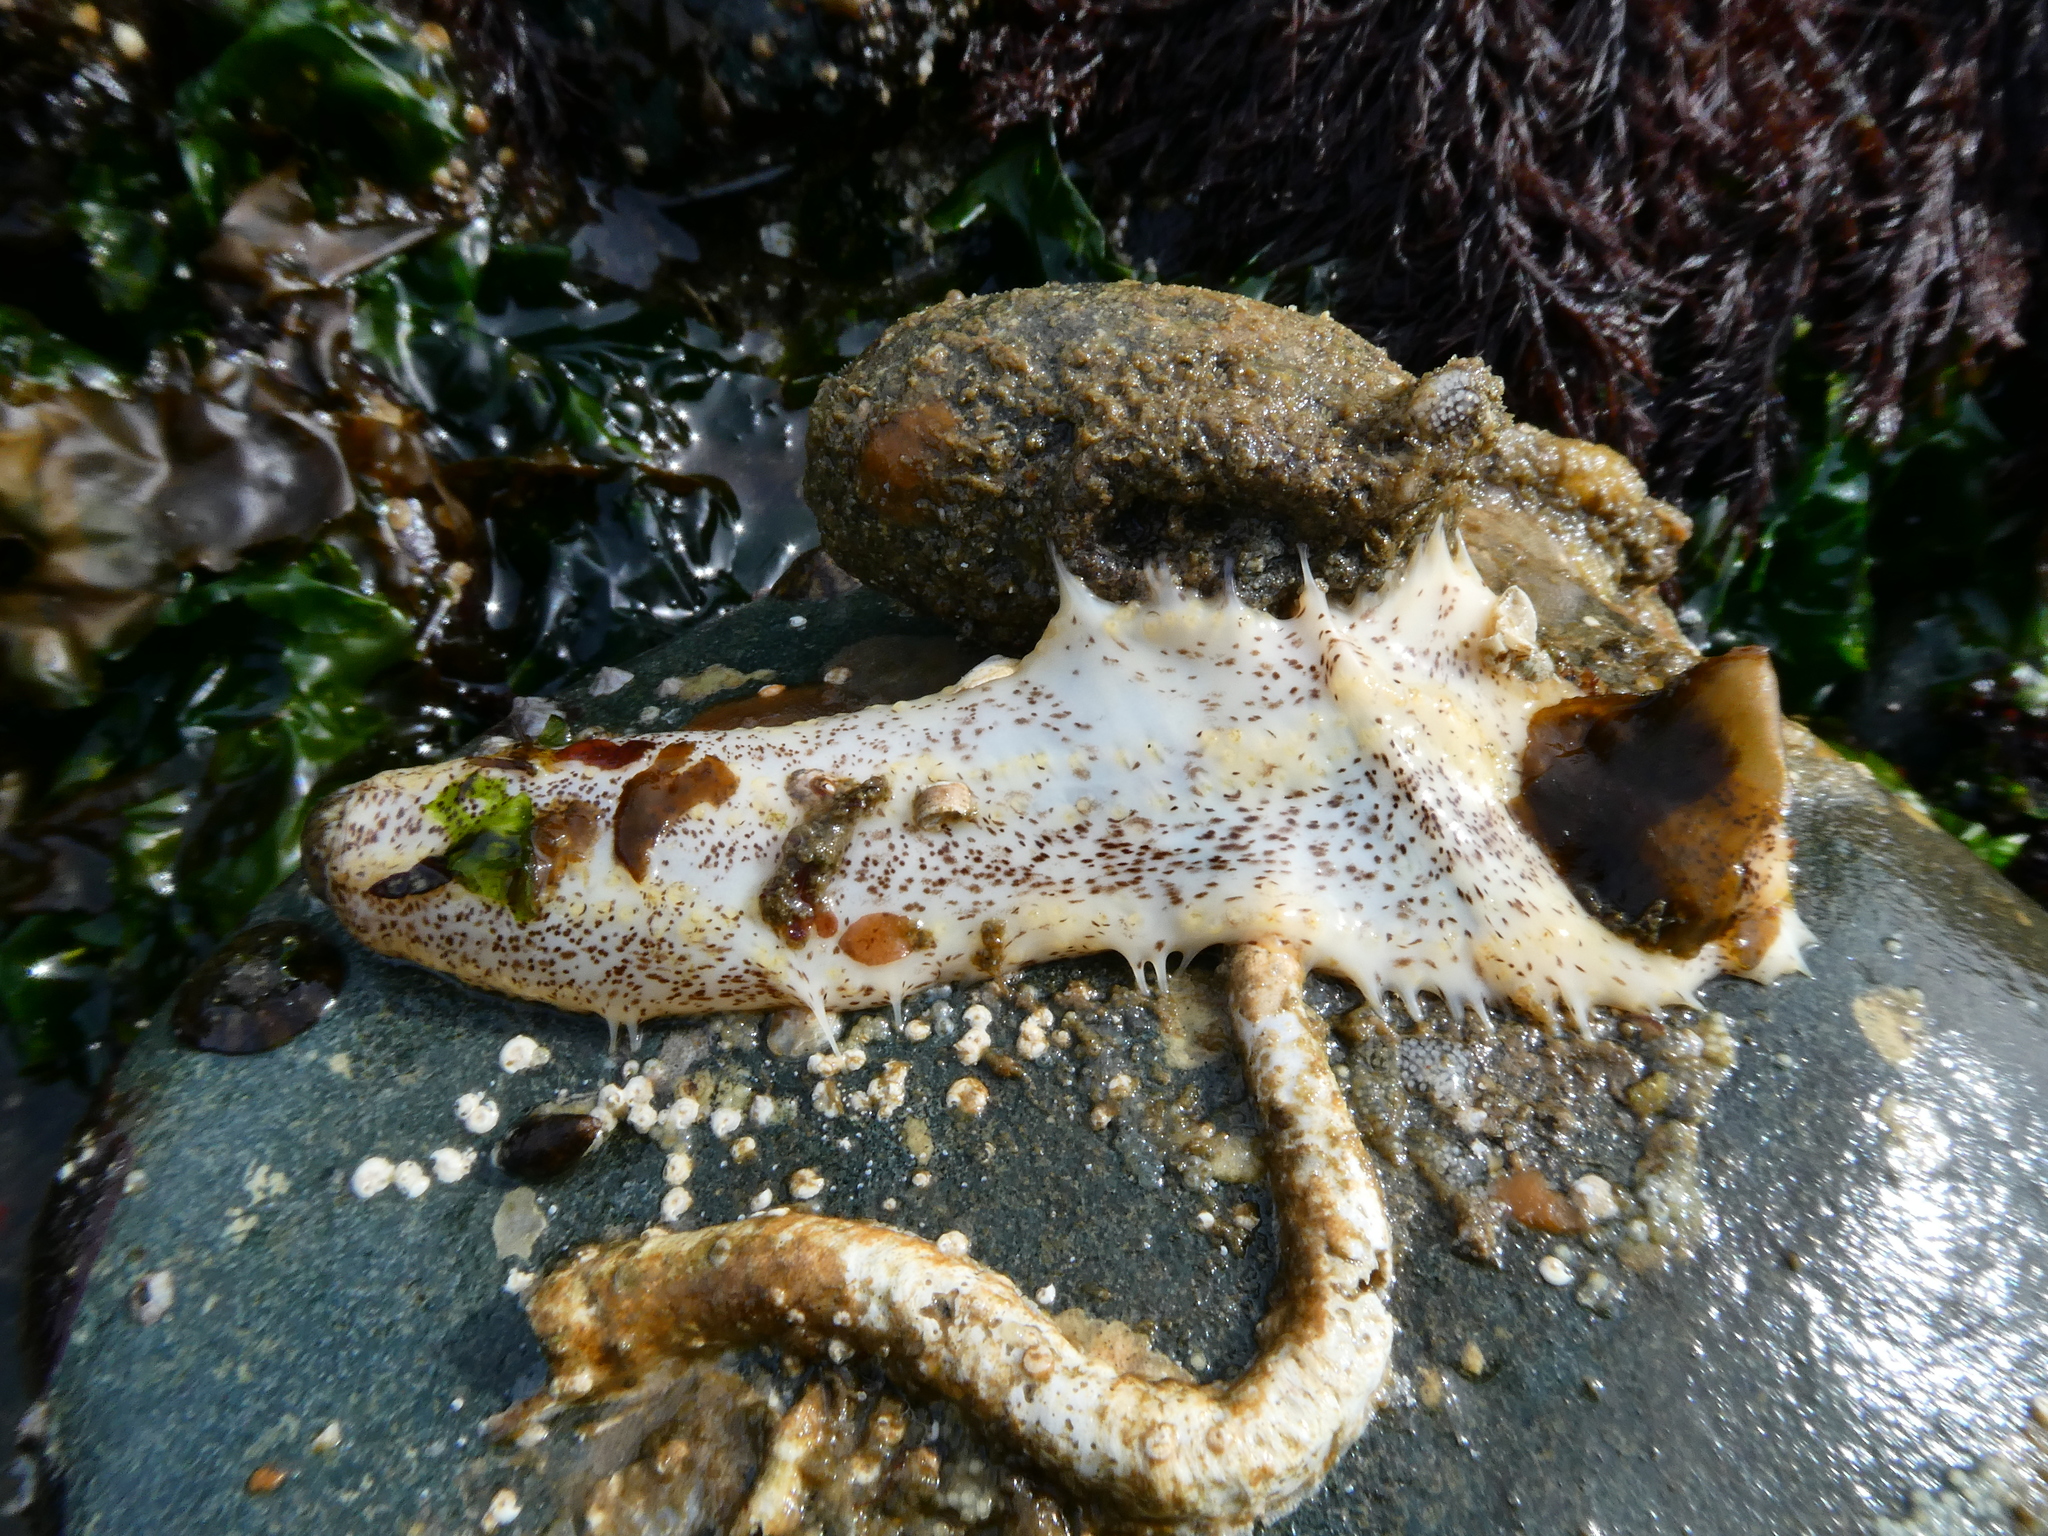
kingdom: Animalia
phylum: Echinodermata
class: Holothuroidea
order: Dendrochirotida
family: Cucumariidae
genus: Cucumaria
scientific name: Cucumaria piperata
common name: Peppered sea cucumber
